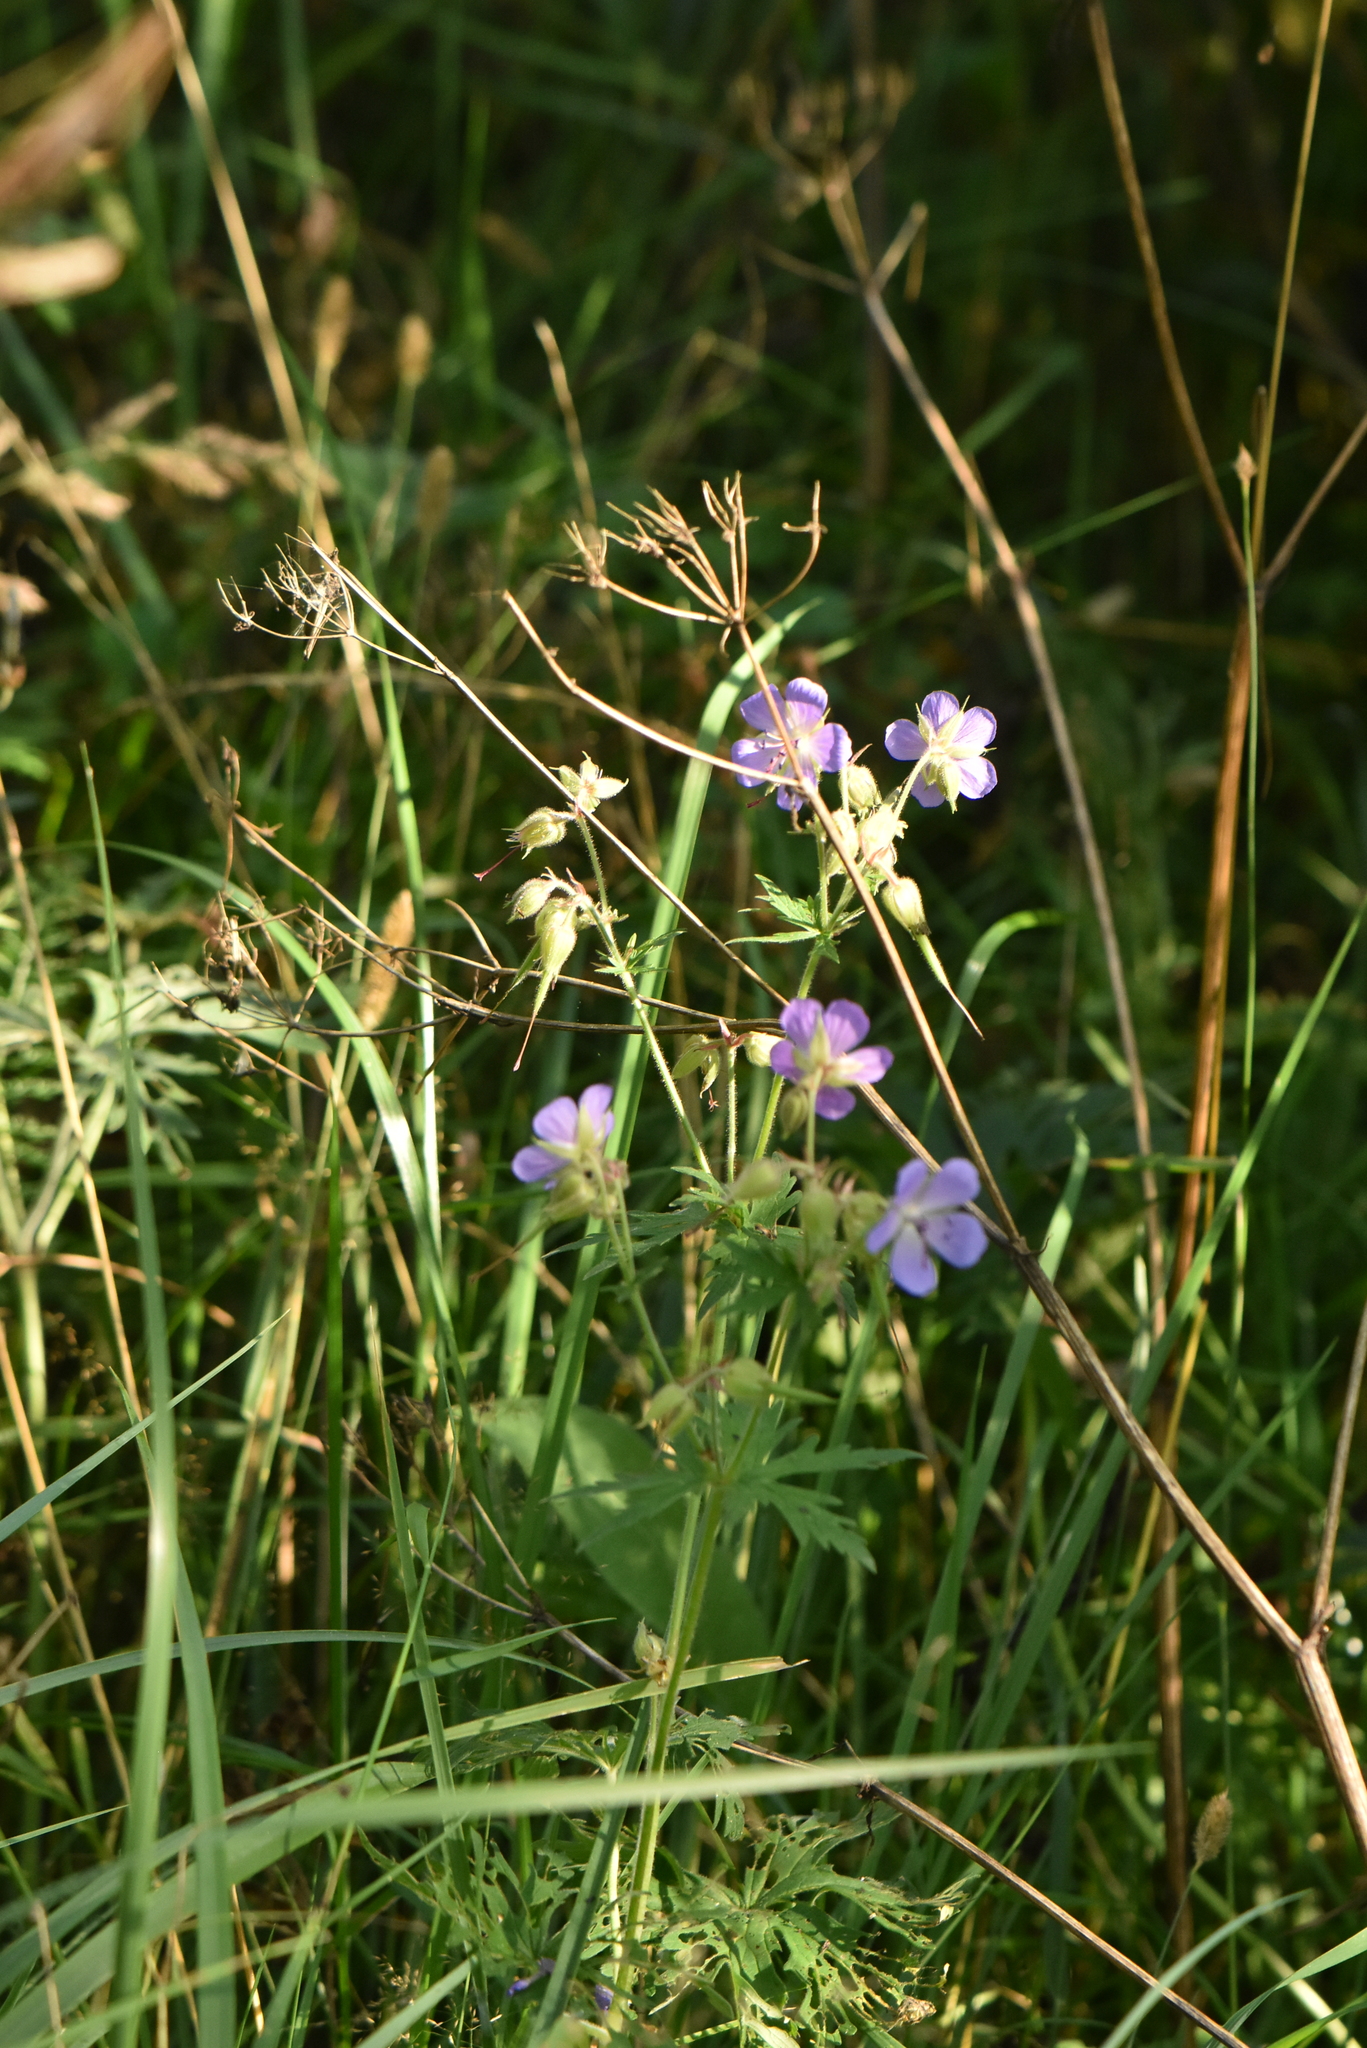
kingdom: Plantae
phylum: Tracheophyta
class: Magnoliopsida
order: Geraniales
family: Geraniaceae
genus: Geranium
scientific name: Geranium pratense
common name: Meadow crane's-bill
